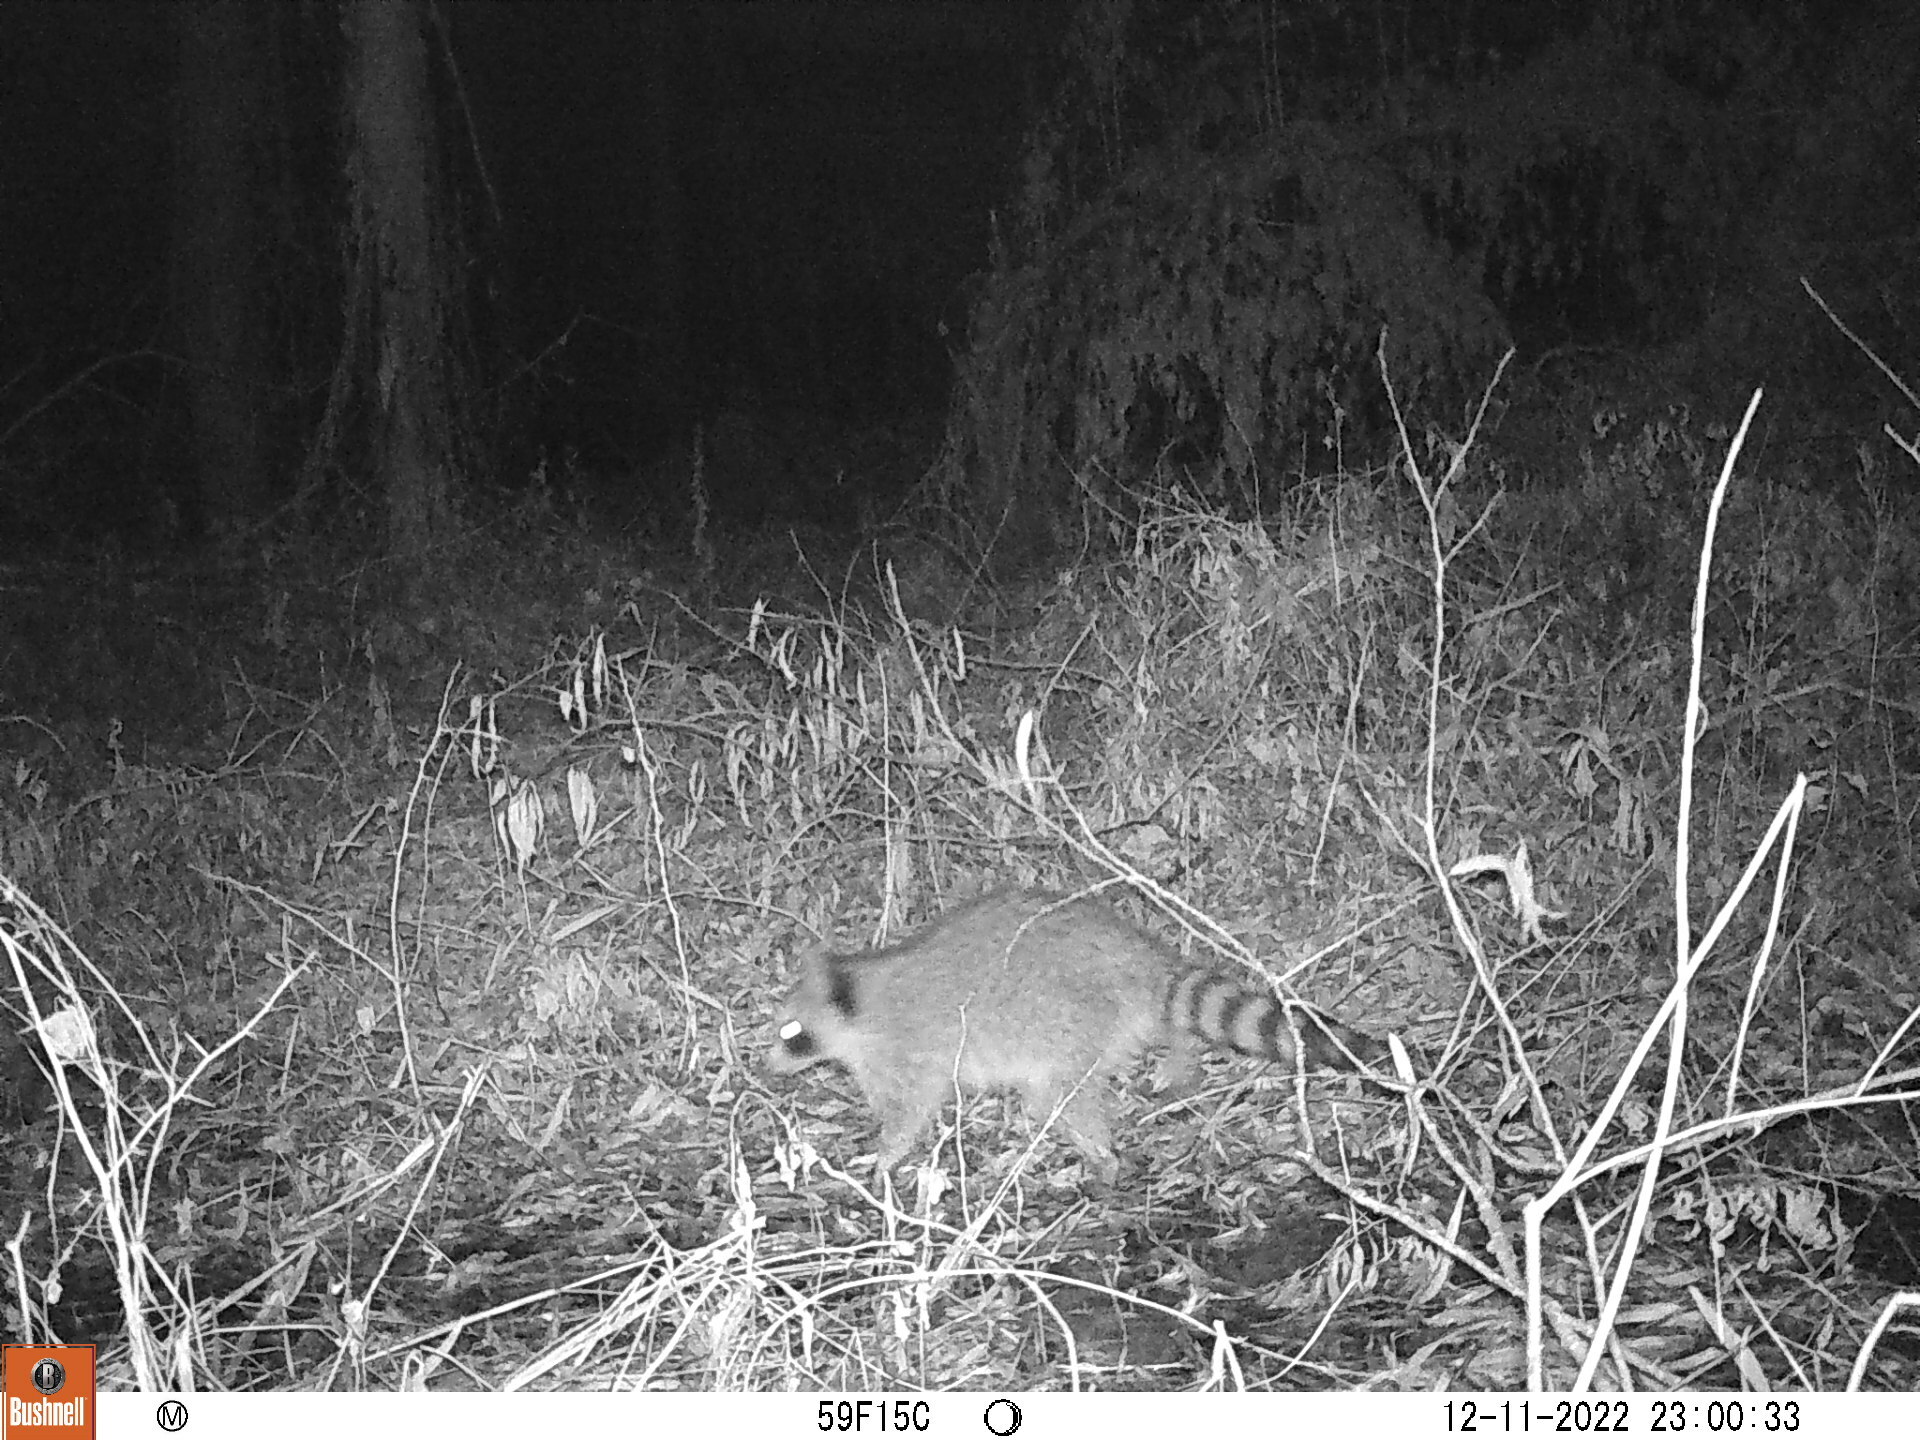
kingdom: Animalia
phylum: Chordata
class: Mammalia
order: Carnivora
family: Procyonidae
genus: Procyon
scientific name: Procyon lotor
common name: Raccoon
